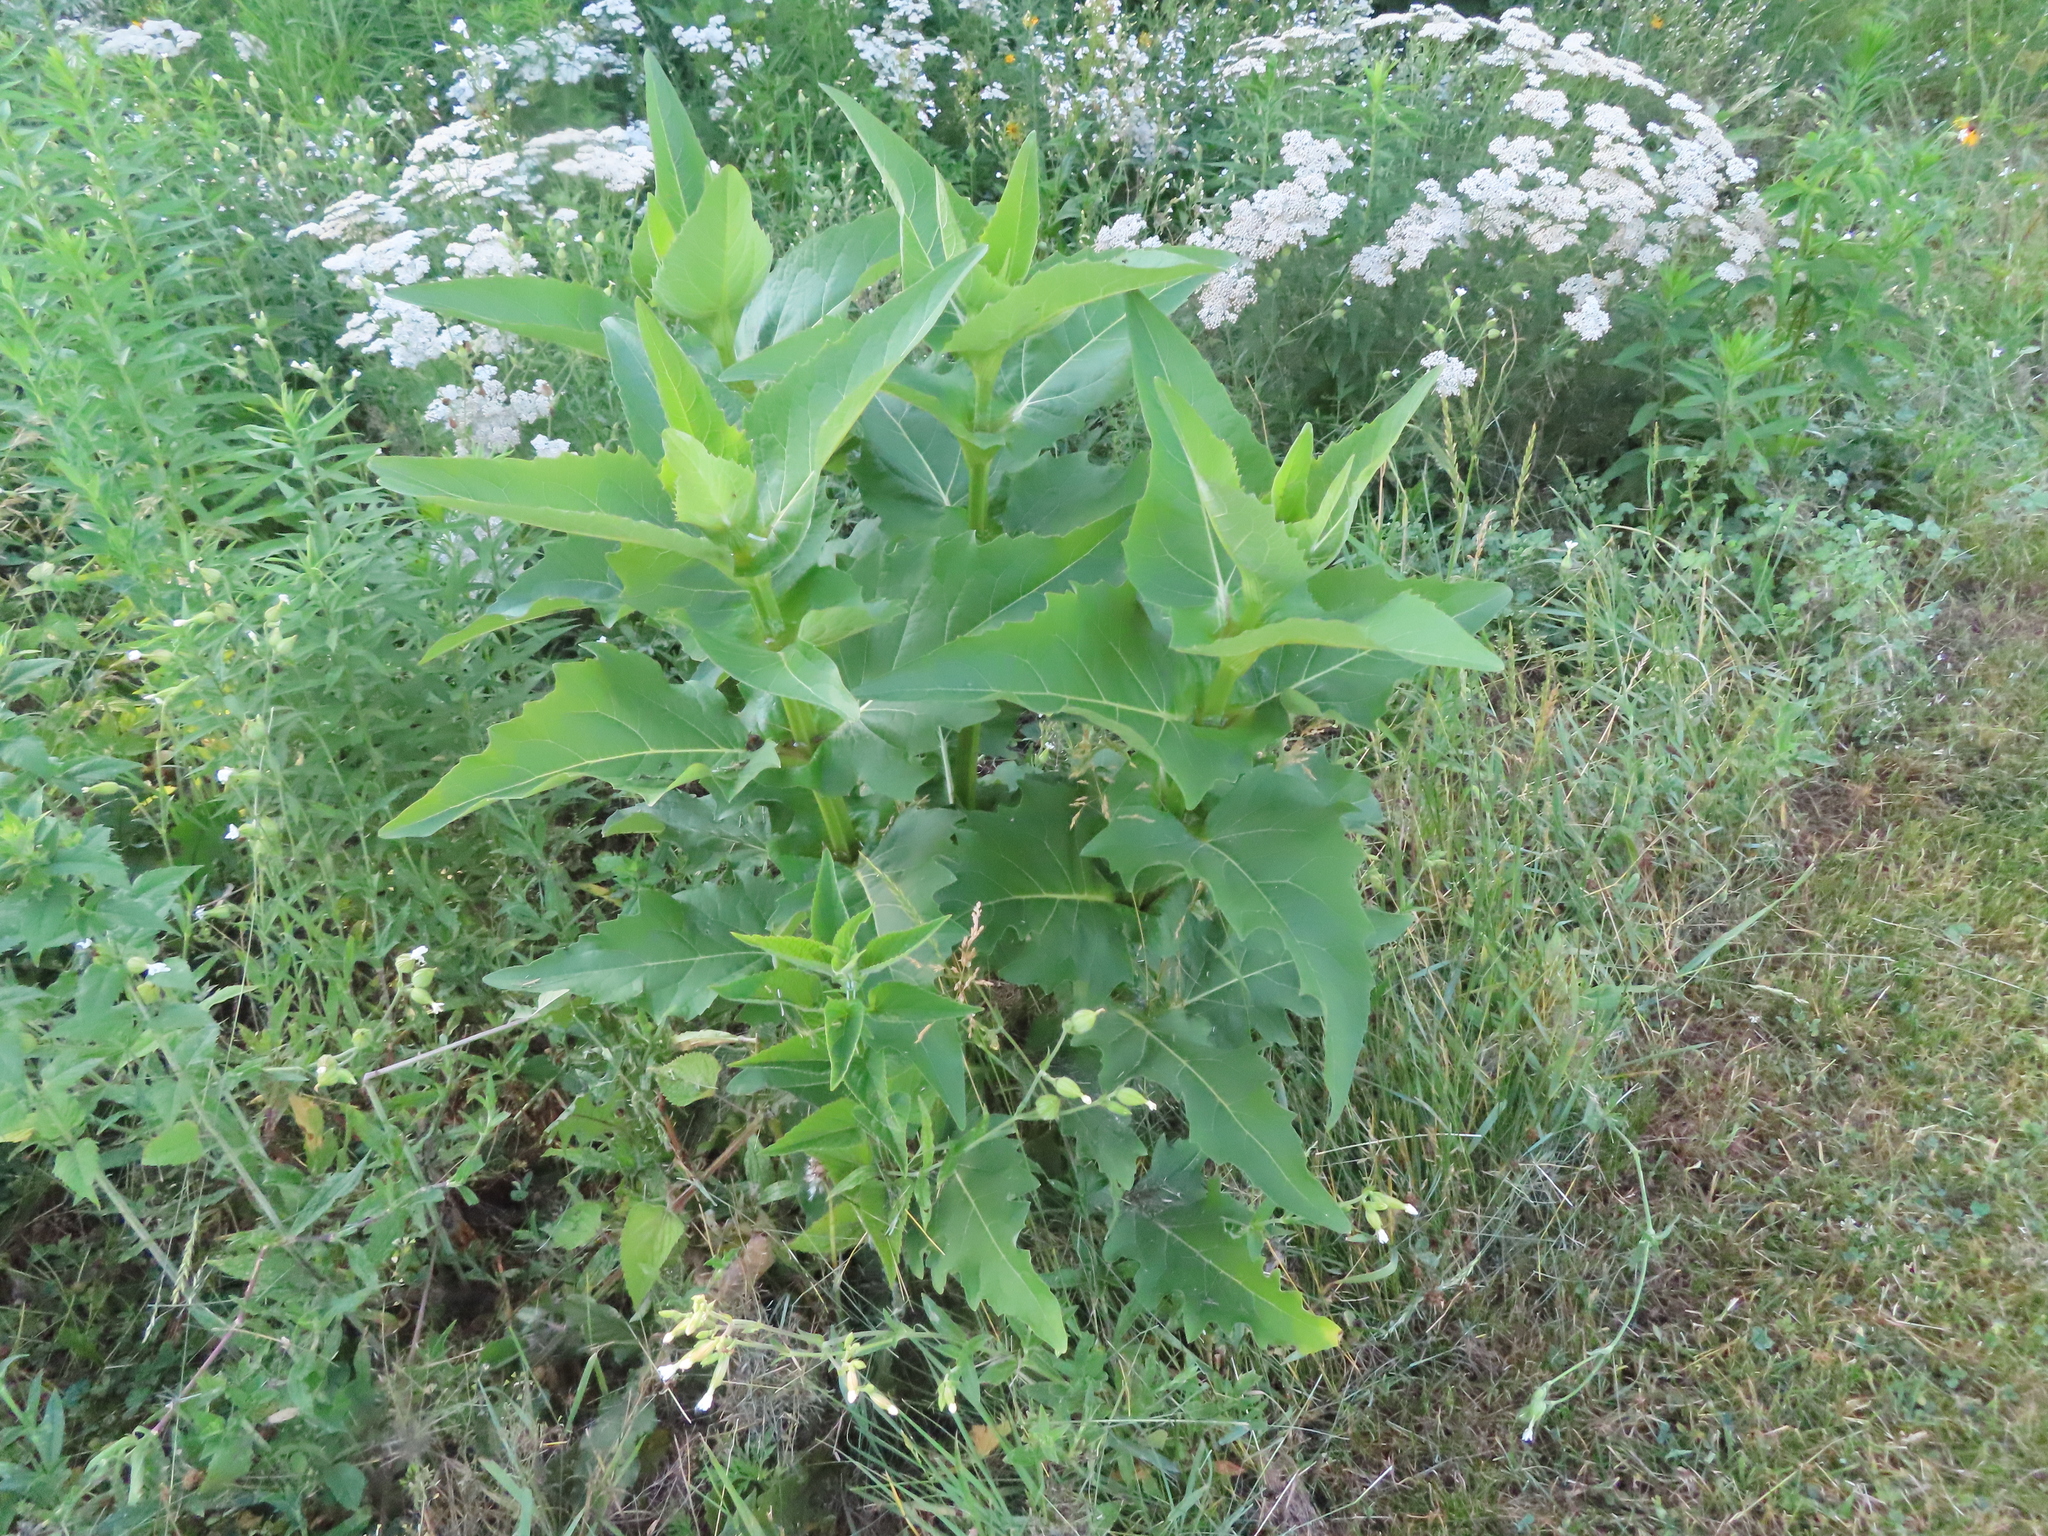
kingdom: Plantae
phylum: Tracheophyta
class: Magnoliopsida
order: Asterales
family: Asteraceae
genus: Silphium
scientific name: Silphium perfoliatum
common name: Cup-plant
